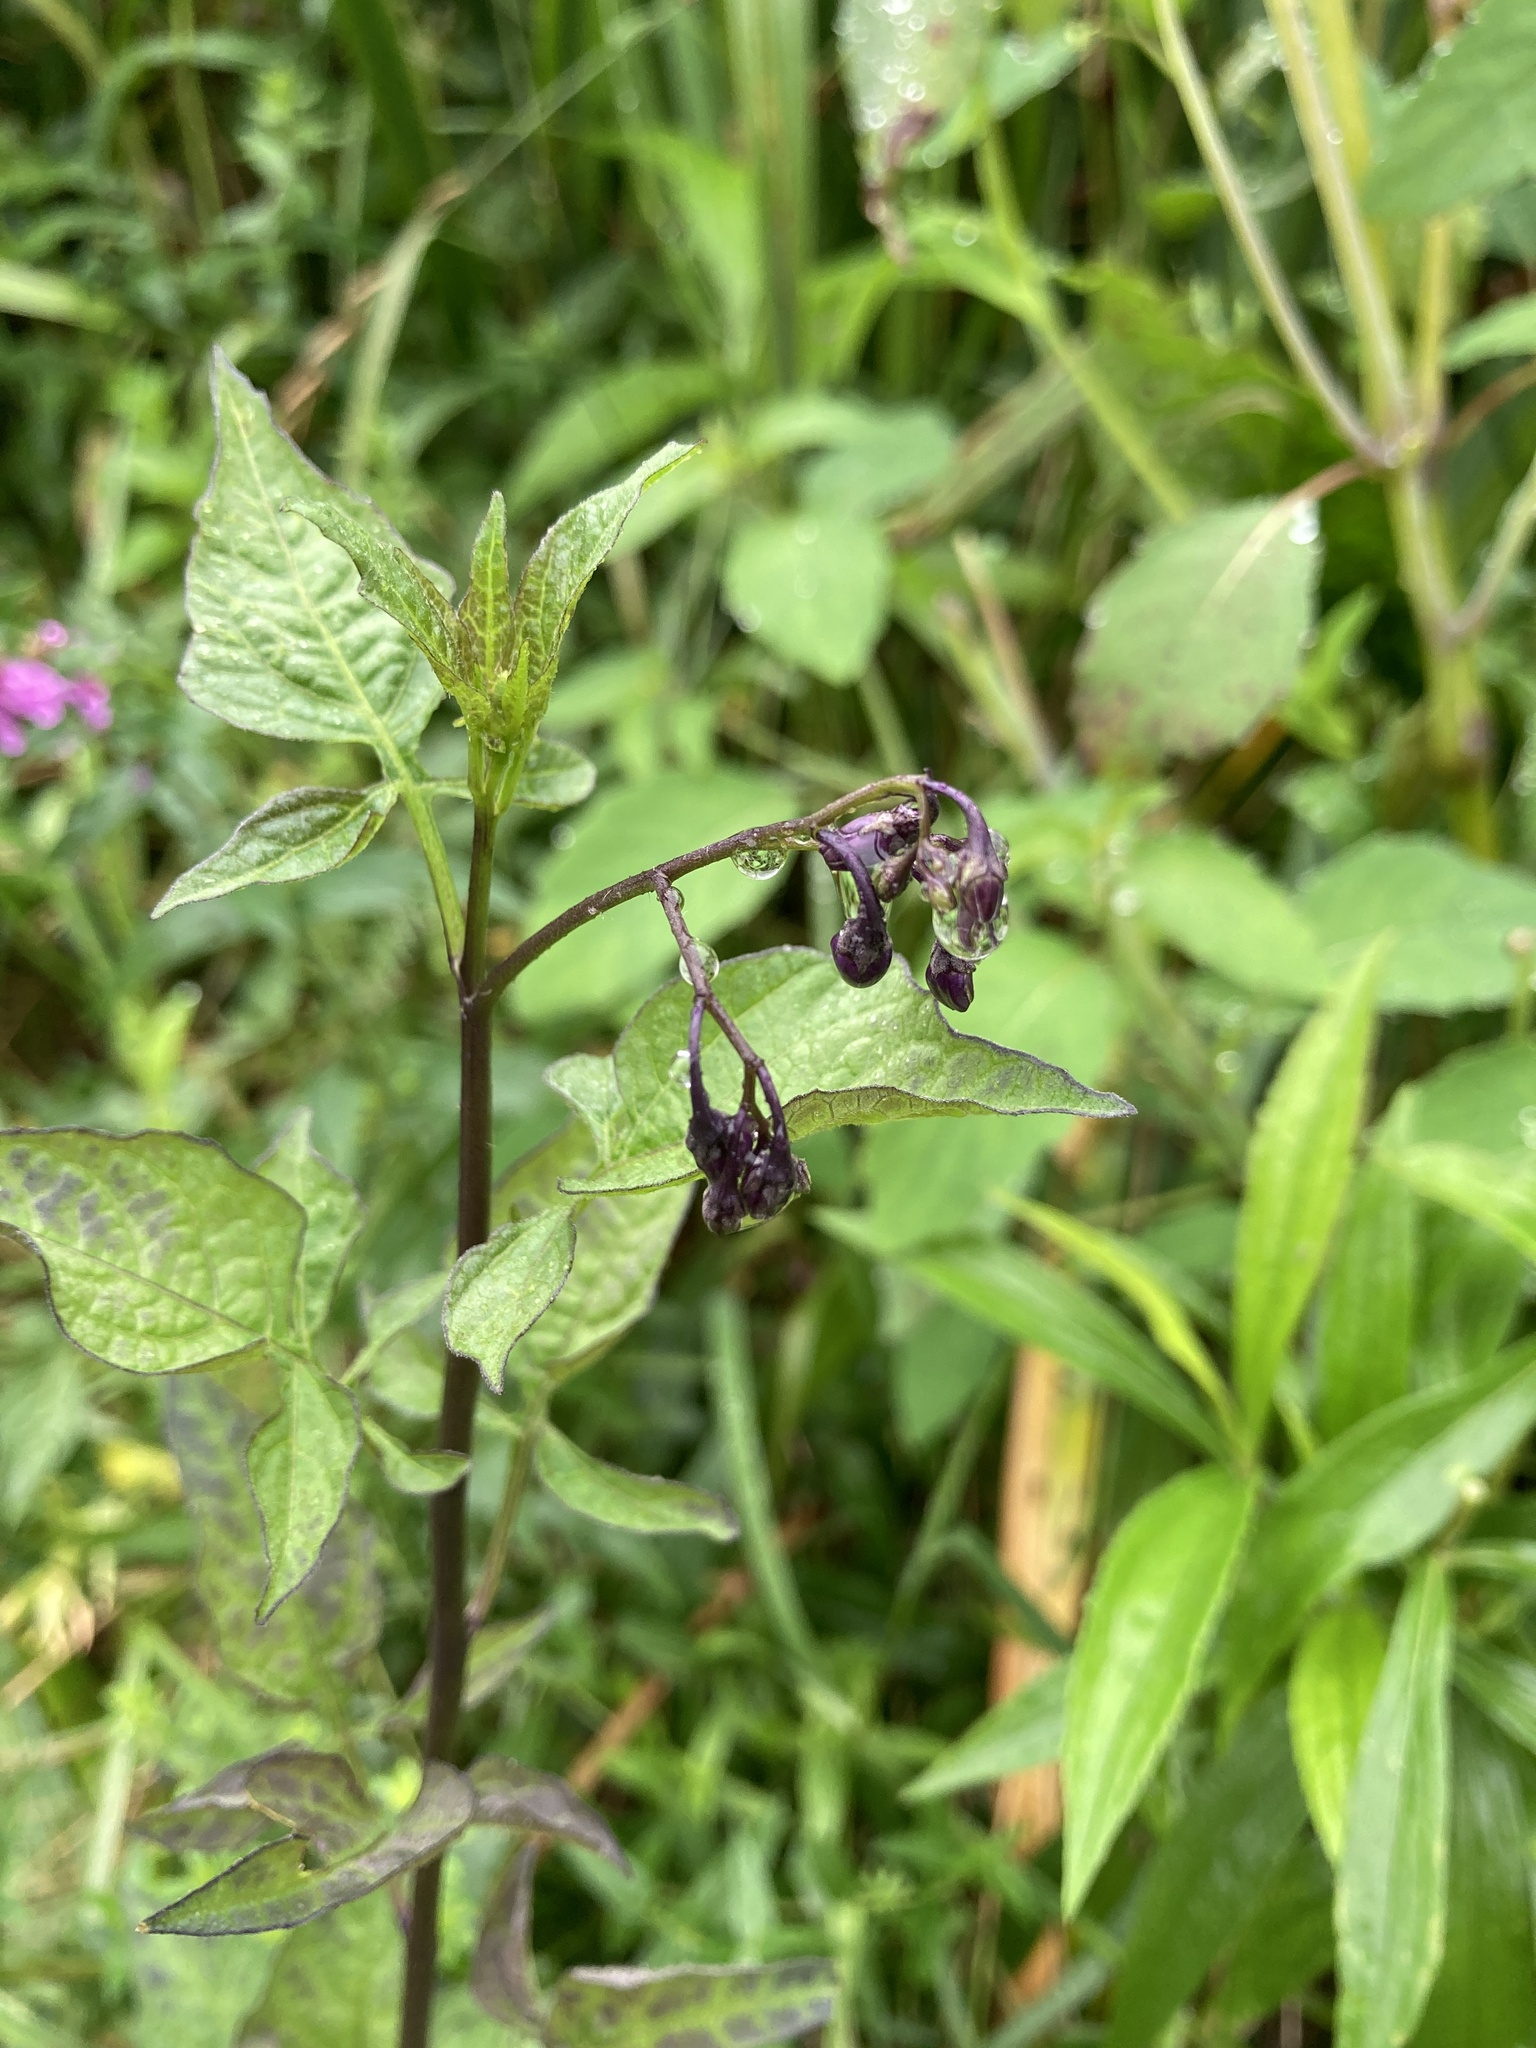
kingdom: Plantae
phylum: Tracheophyta
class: Magnoliopsida
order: Solanales
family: Solanaceae
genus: Solanum
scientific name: Solanum dulcamara
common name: Climbing nightshade
